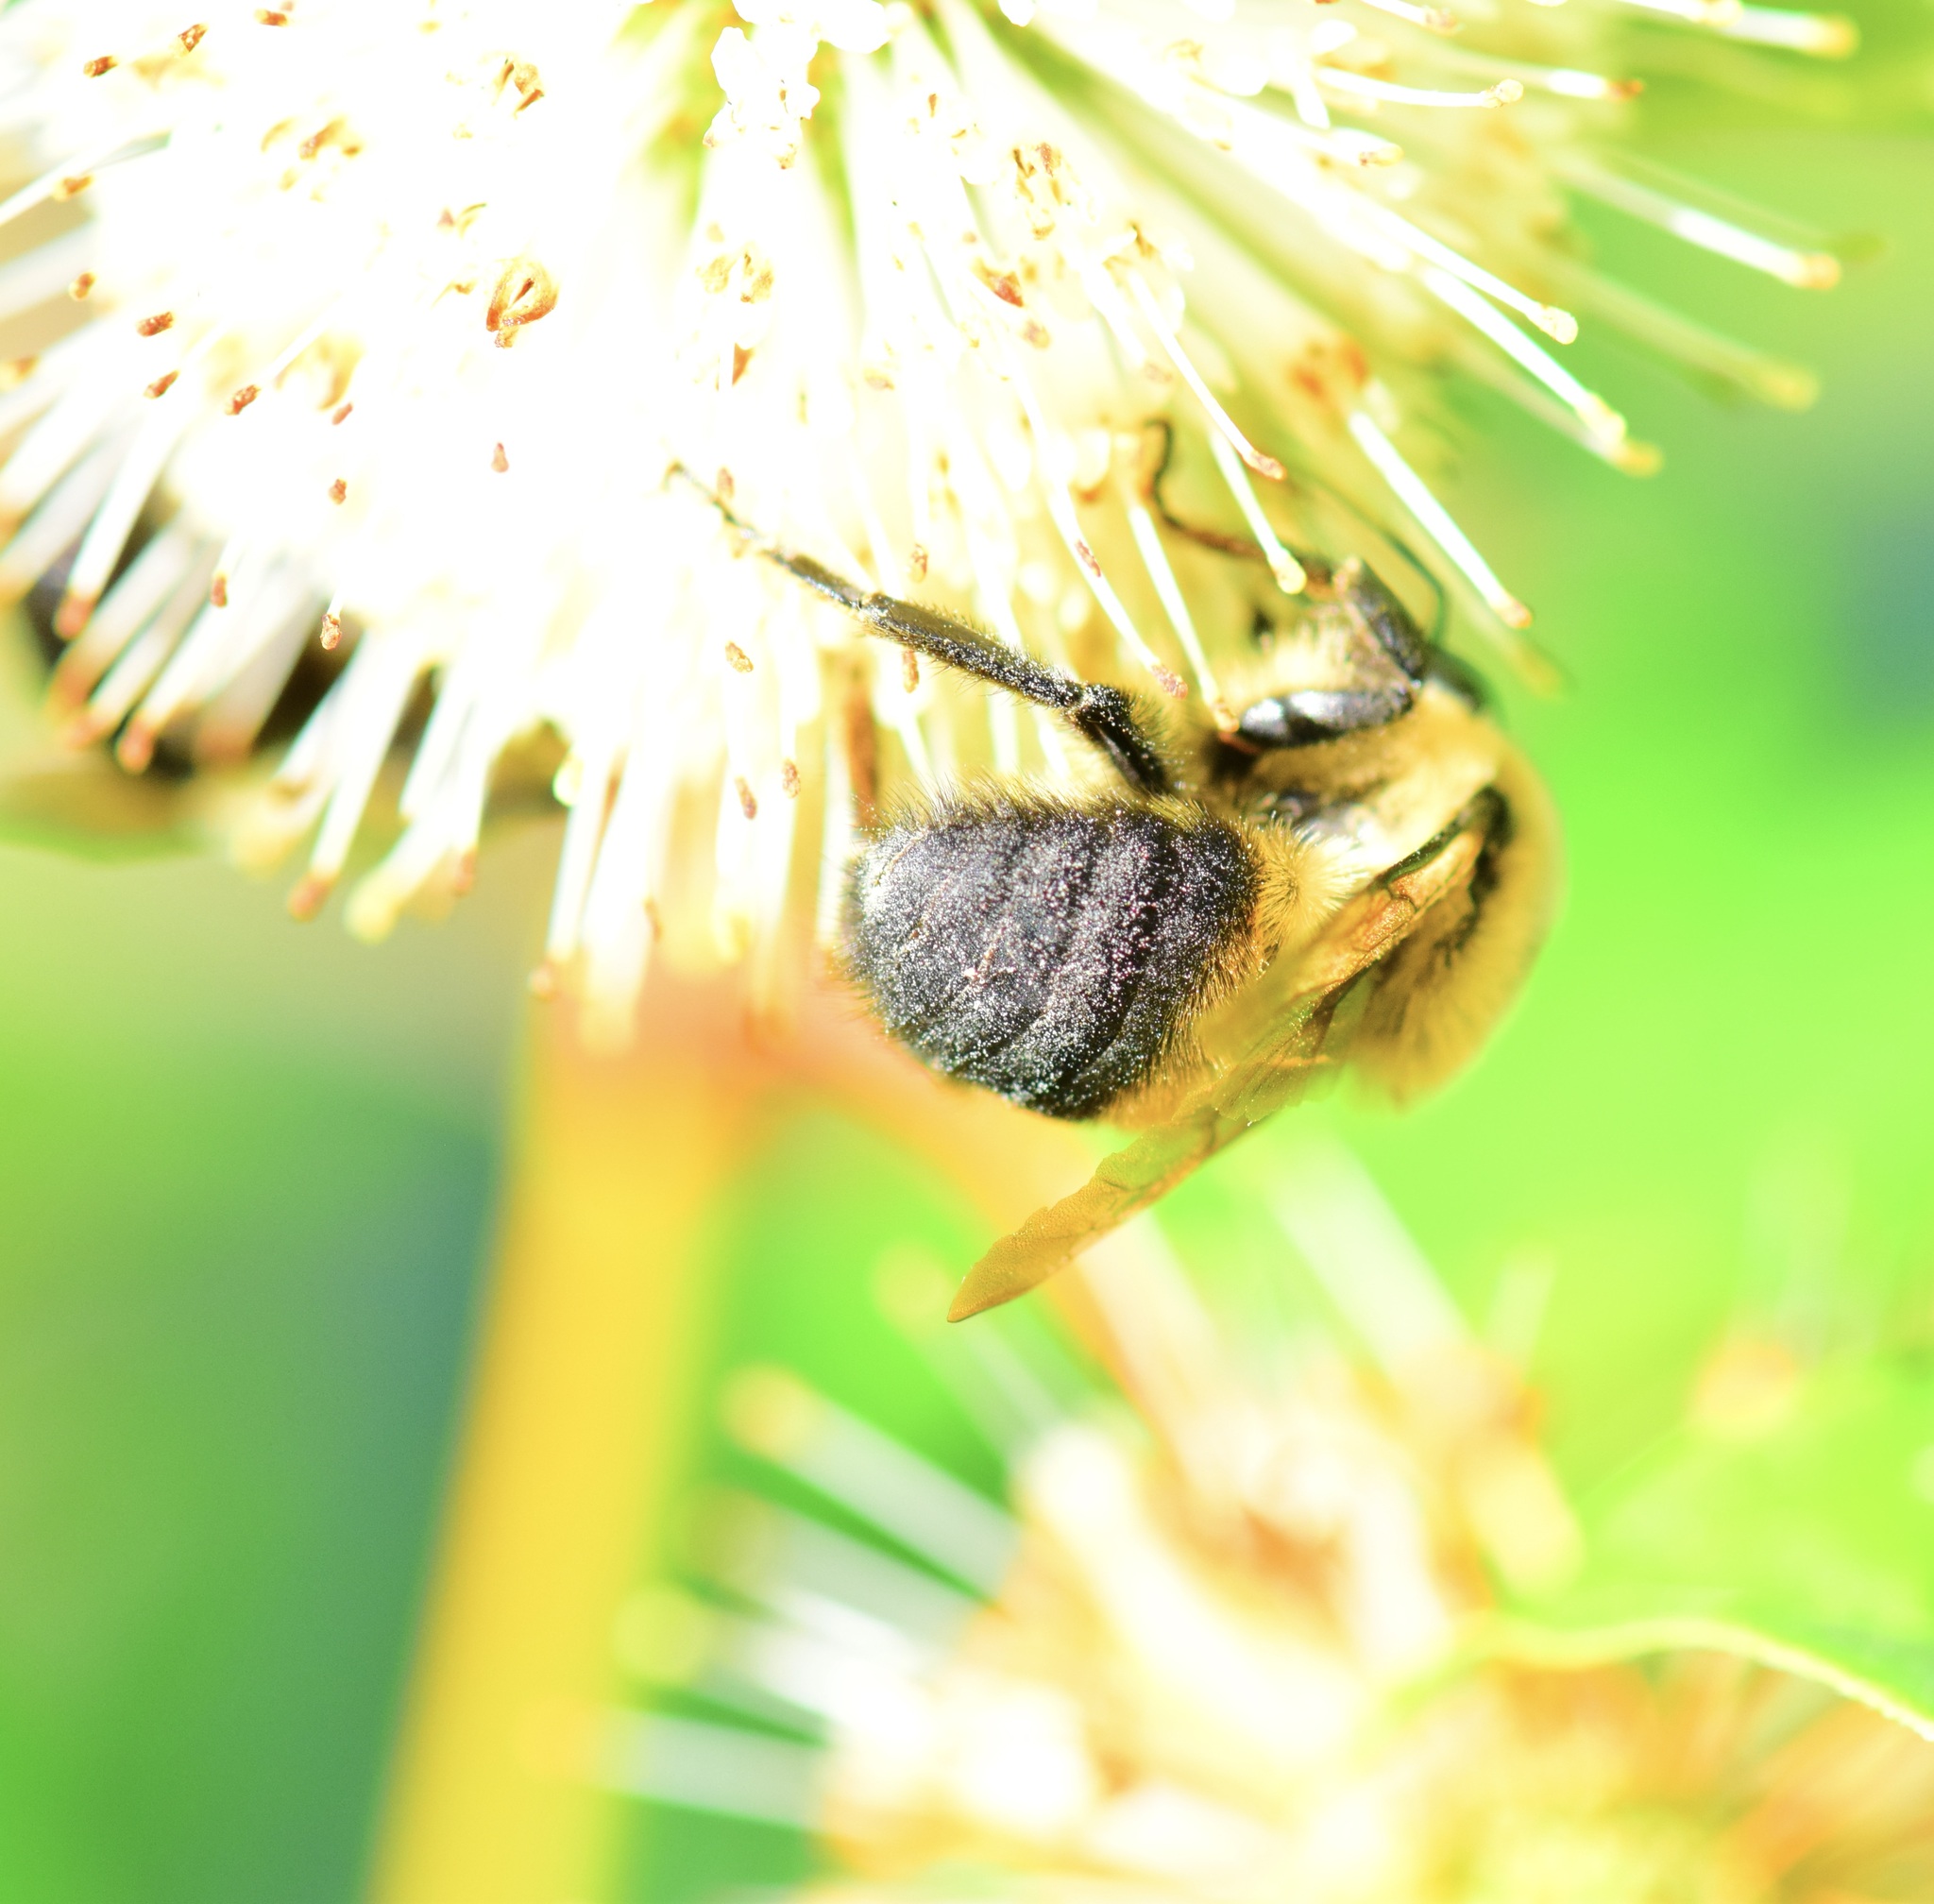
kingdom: Animalia
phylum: Arthropoda
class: Insecta
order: Hymenoptera
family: Apidae
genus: Bombus
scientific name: Bombus griseocollis
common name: Brown-belted bumble bee
